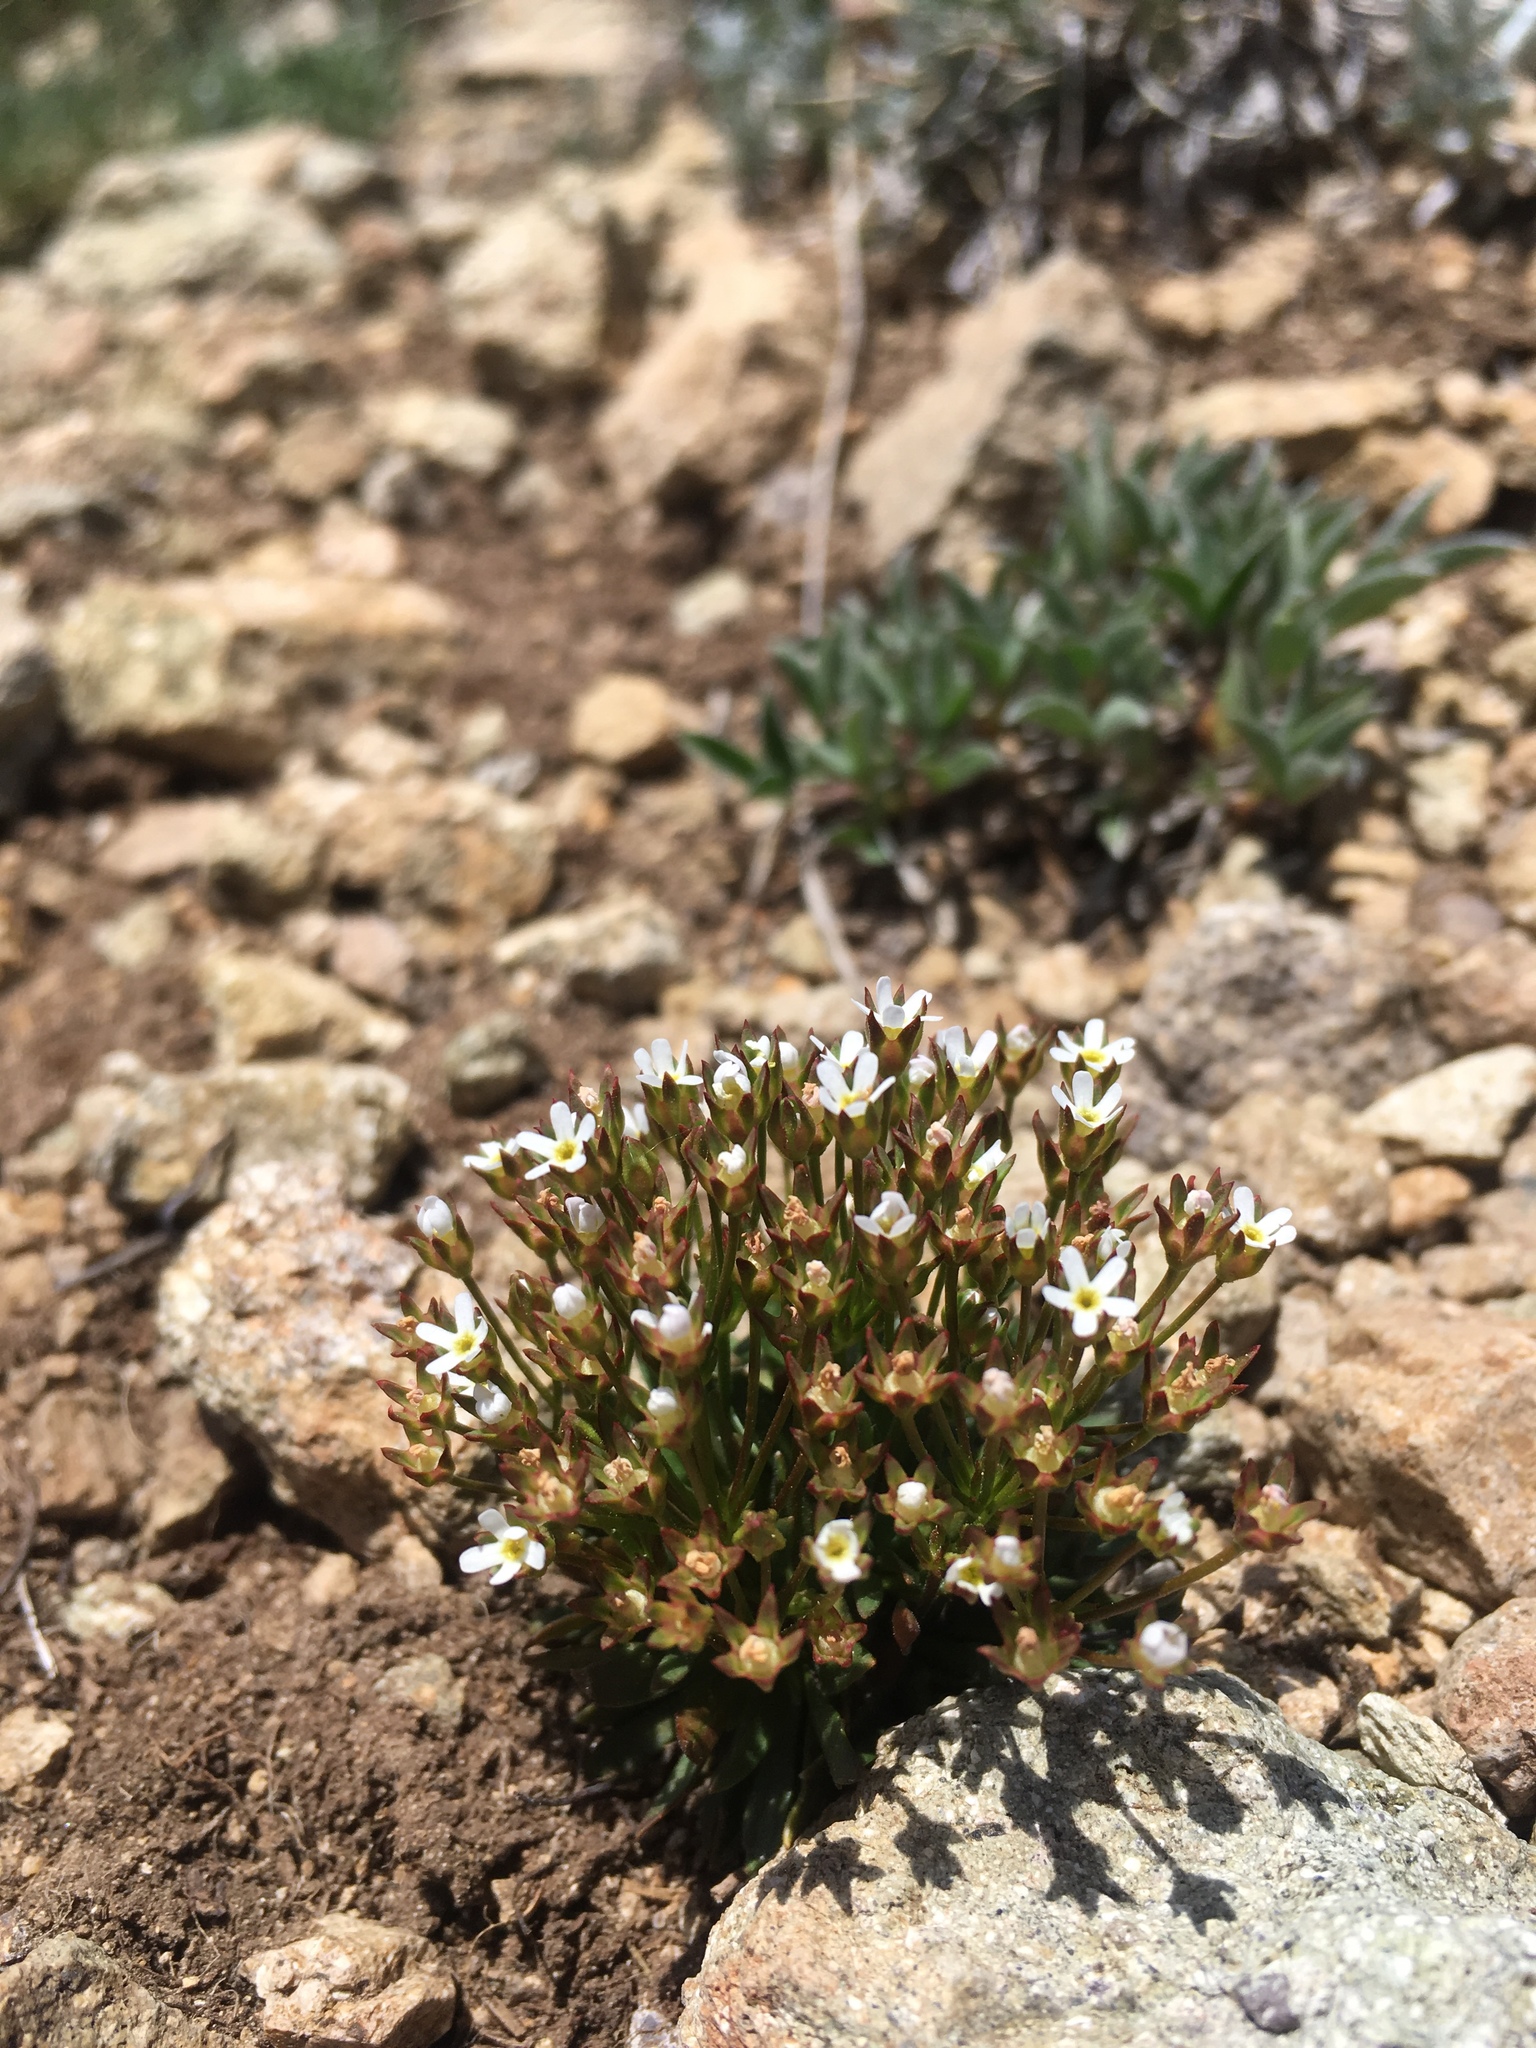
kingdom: Plantae
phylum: Tracheophyta
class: Magnoliopsida
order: Ericales
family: Primulaceae
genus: Androsace
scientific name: Androsace septentrionalis
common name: Hairy northern fairy-candelabra
